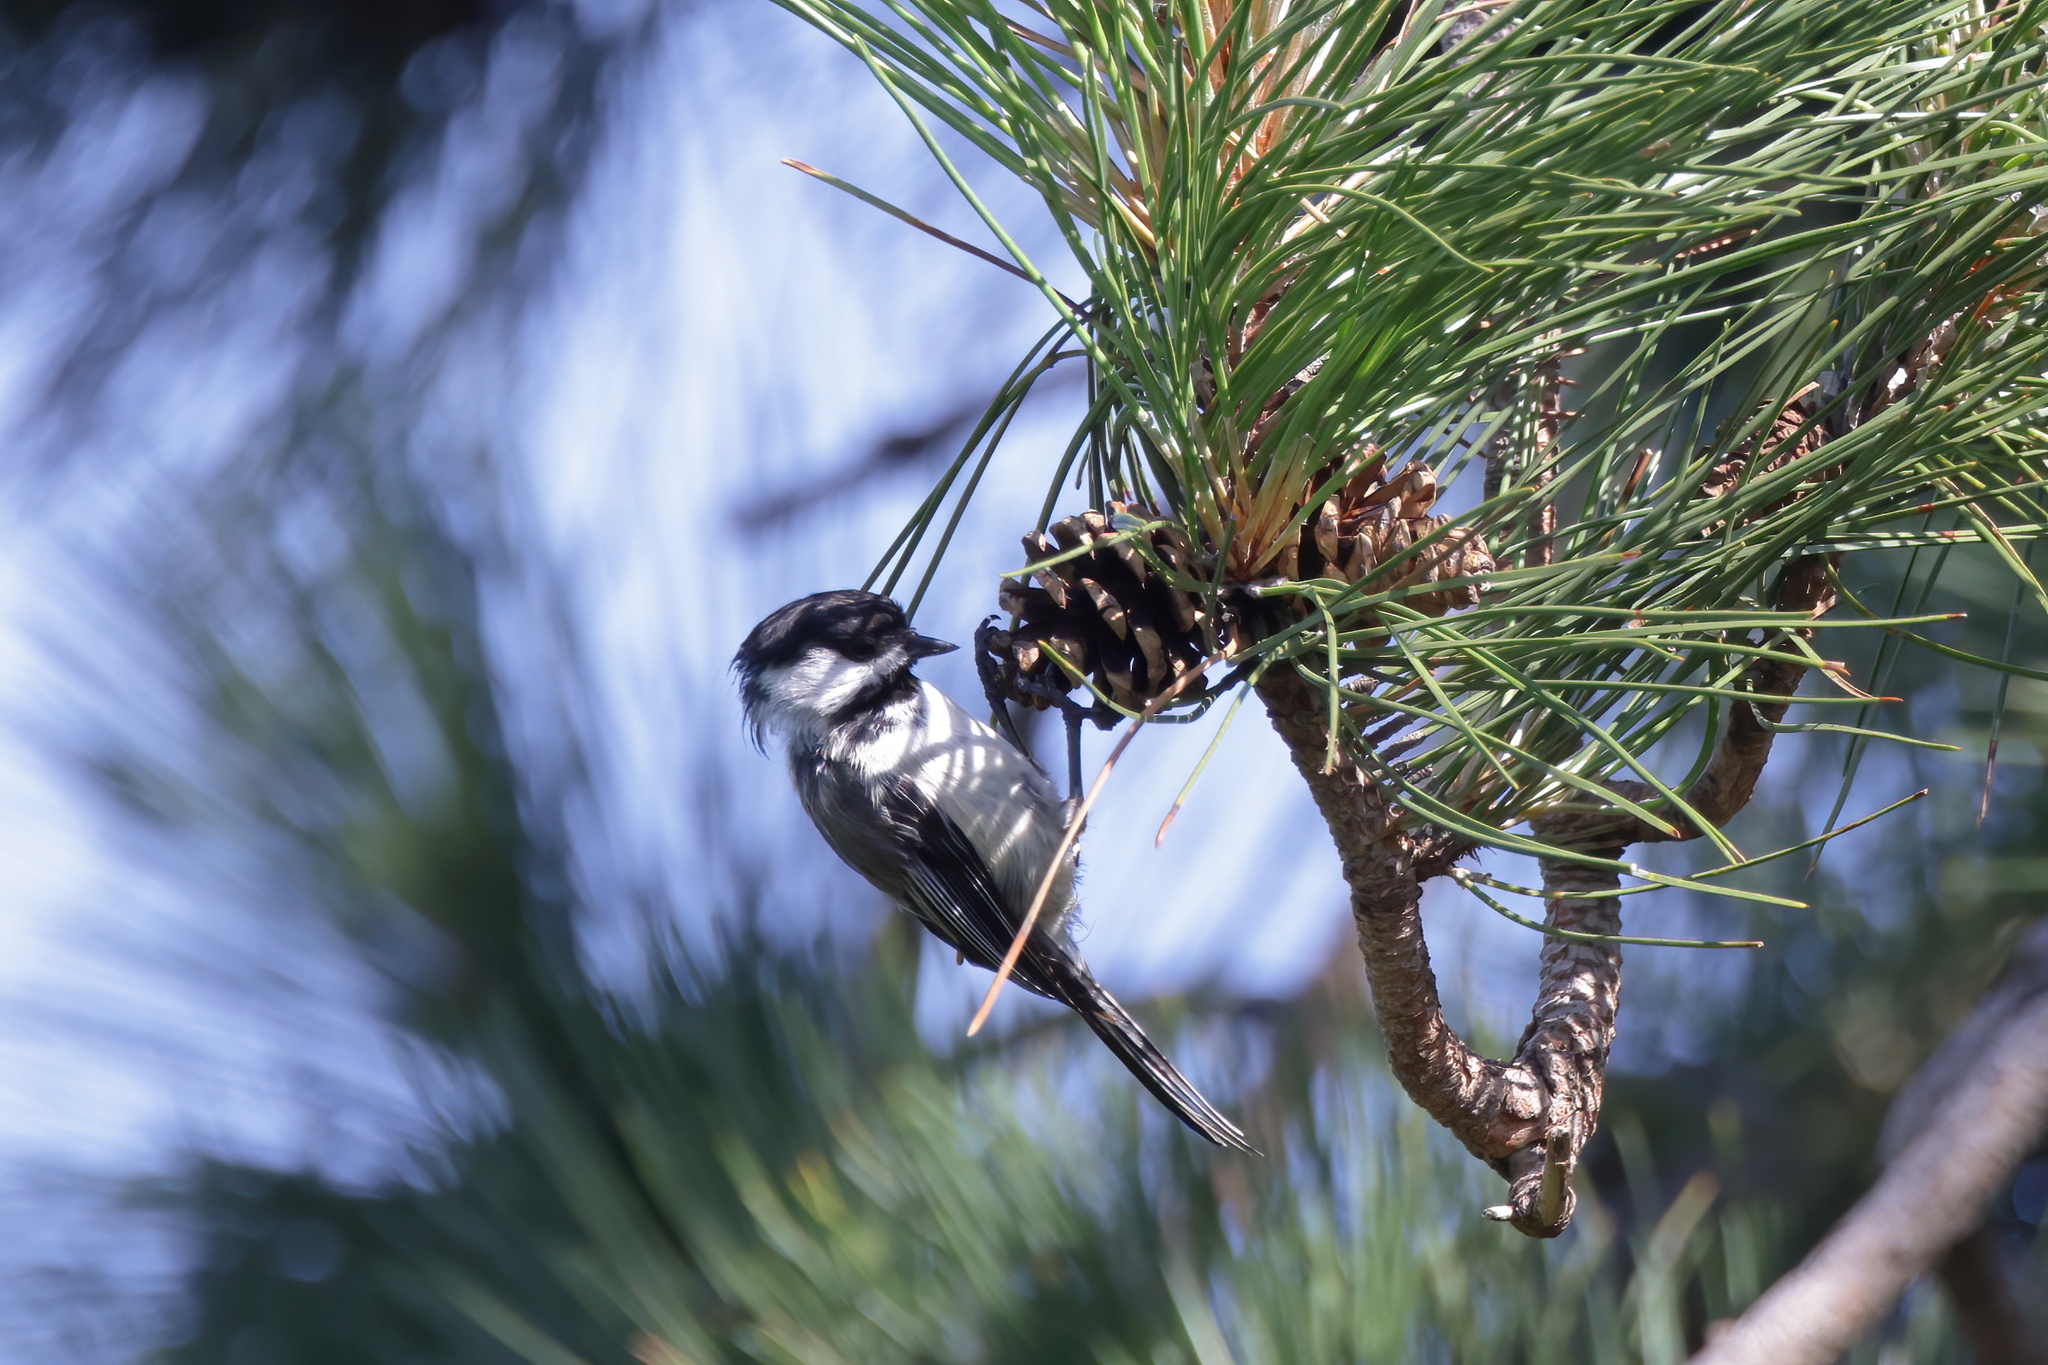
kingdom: Animalia
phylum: Chordata
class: Aves
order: Passeriformes
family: Paridae
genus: Poecile
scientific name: Poecile atricapillus
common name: Black-capped chickadee
